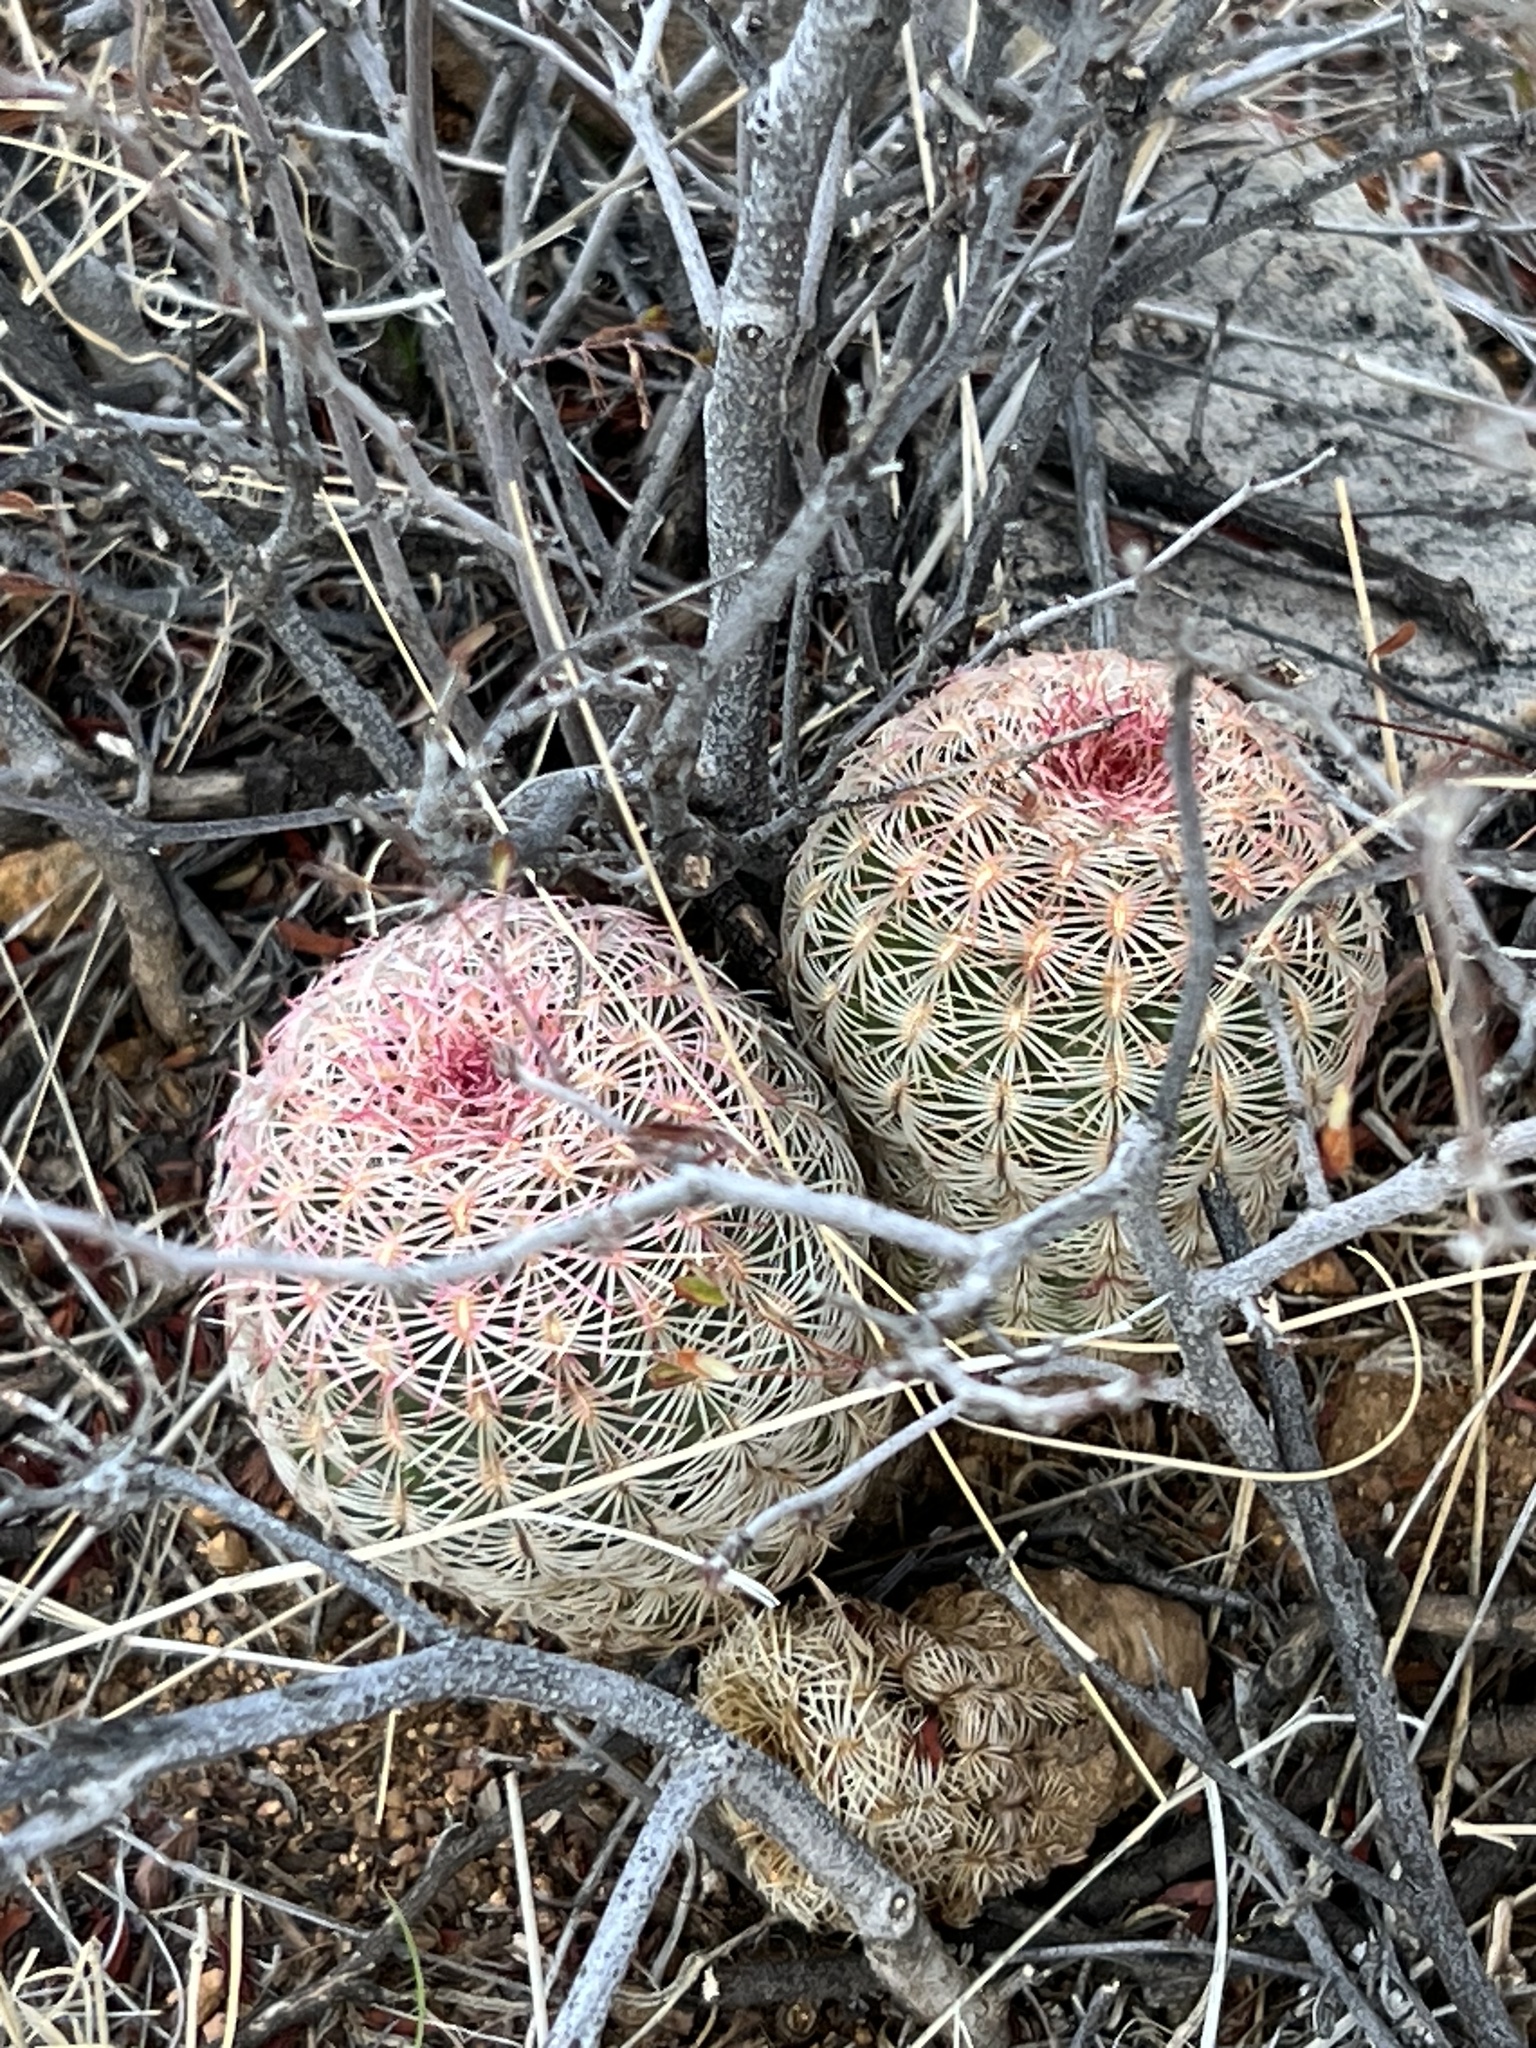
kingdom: Plantae
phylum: Tracheophyta
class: Magnoliopsida
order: Caryophyllales
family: Cactaceae
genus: Echinocereus
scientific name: Echinocereus rigidissimus
